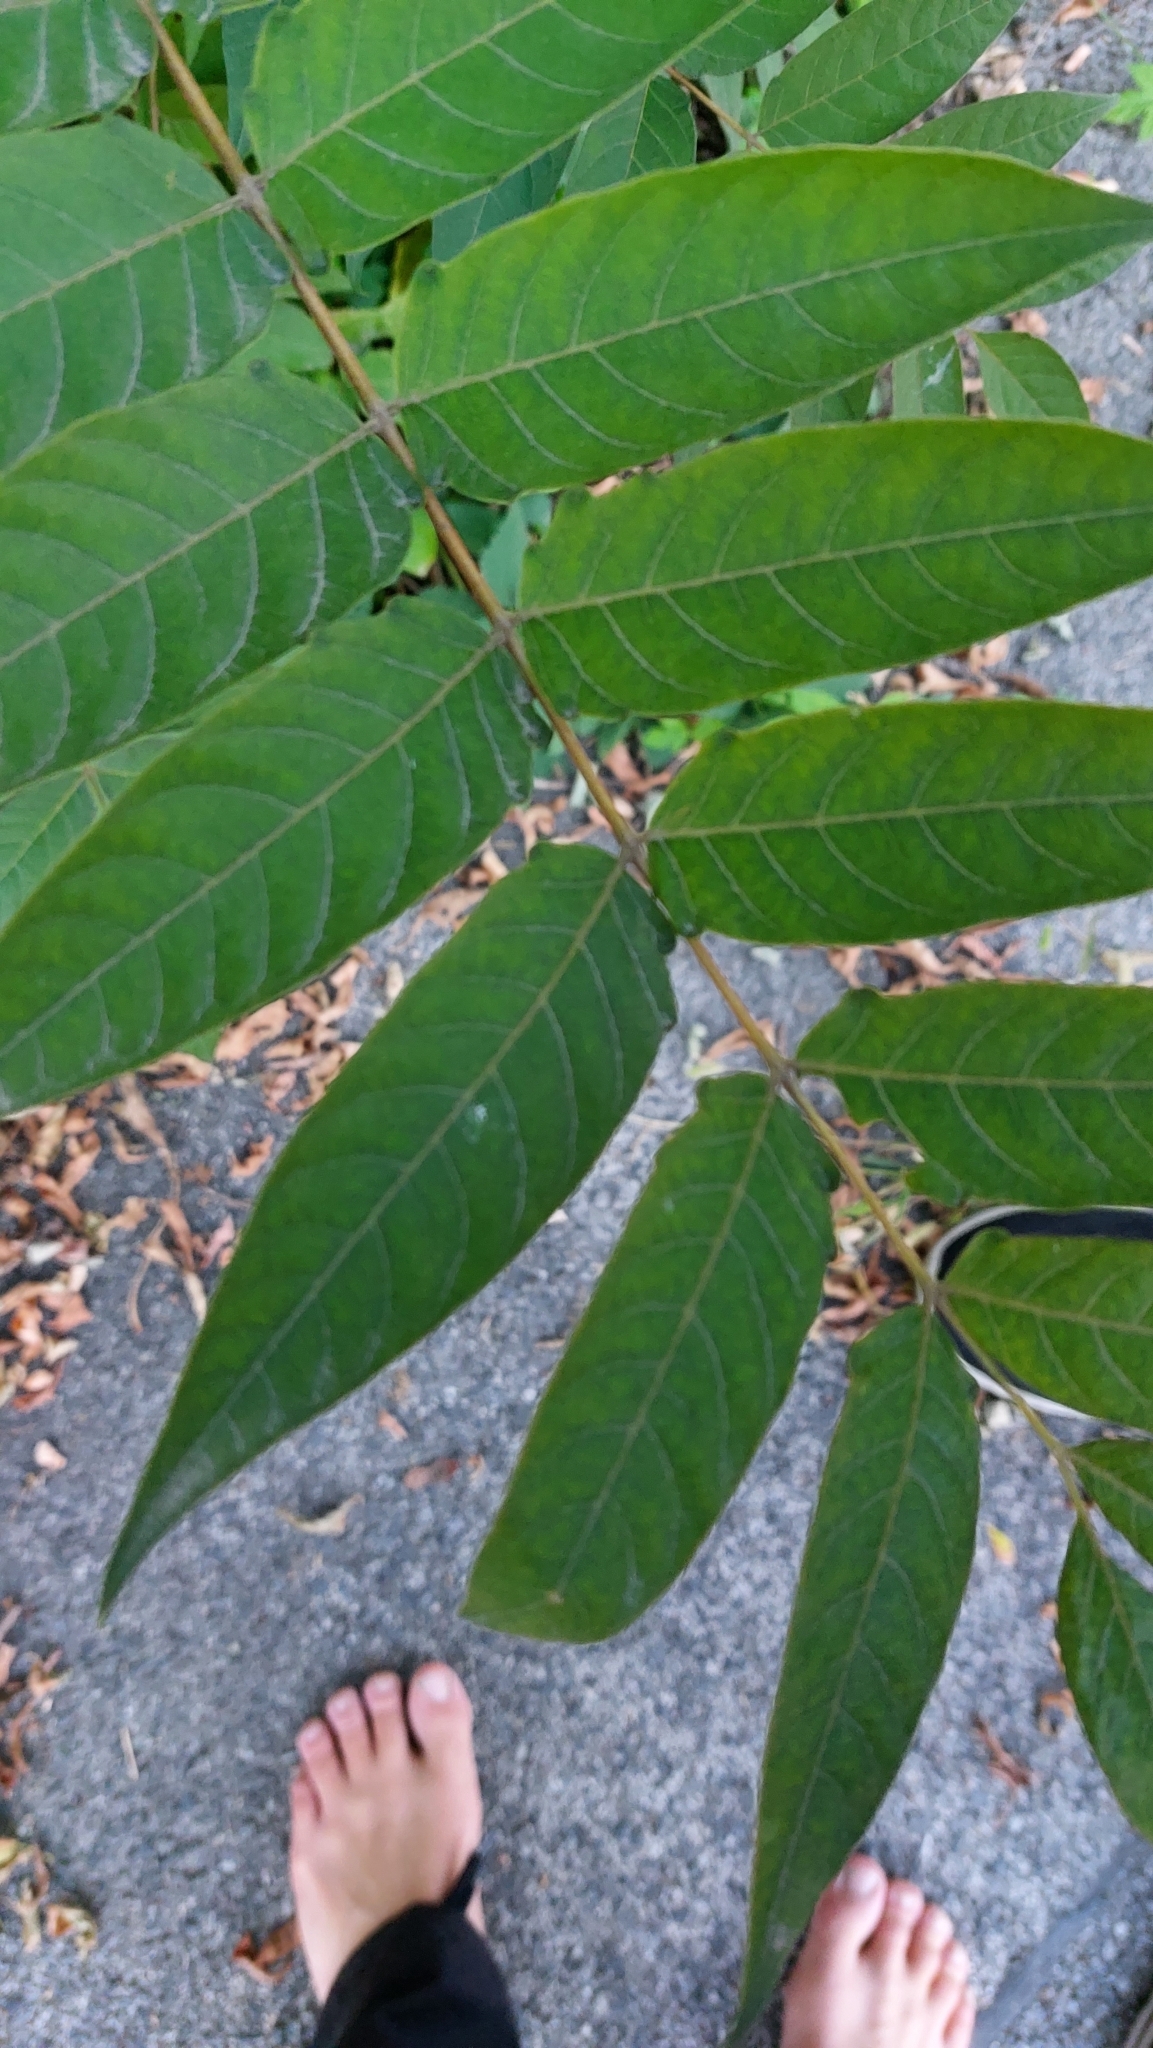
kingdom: Plantae
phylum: Tracheophyta
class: Magnoliopsida
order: Sapindales
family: Simaroubaceae
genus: Ailanthus
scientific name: Ailanthus altissima
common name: Tree-of-heaven
